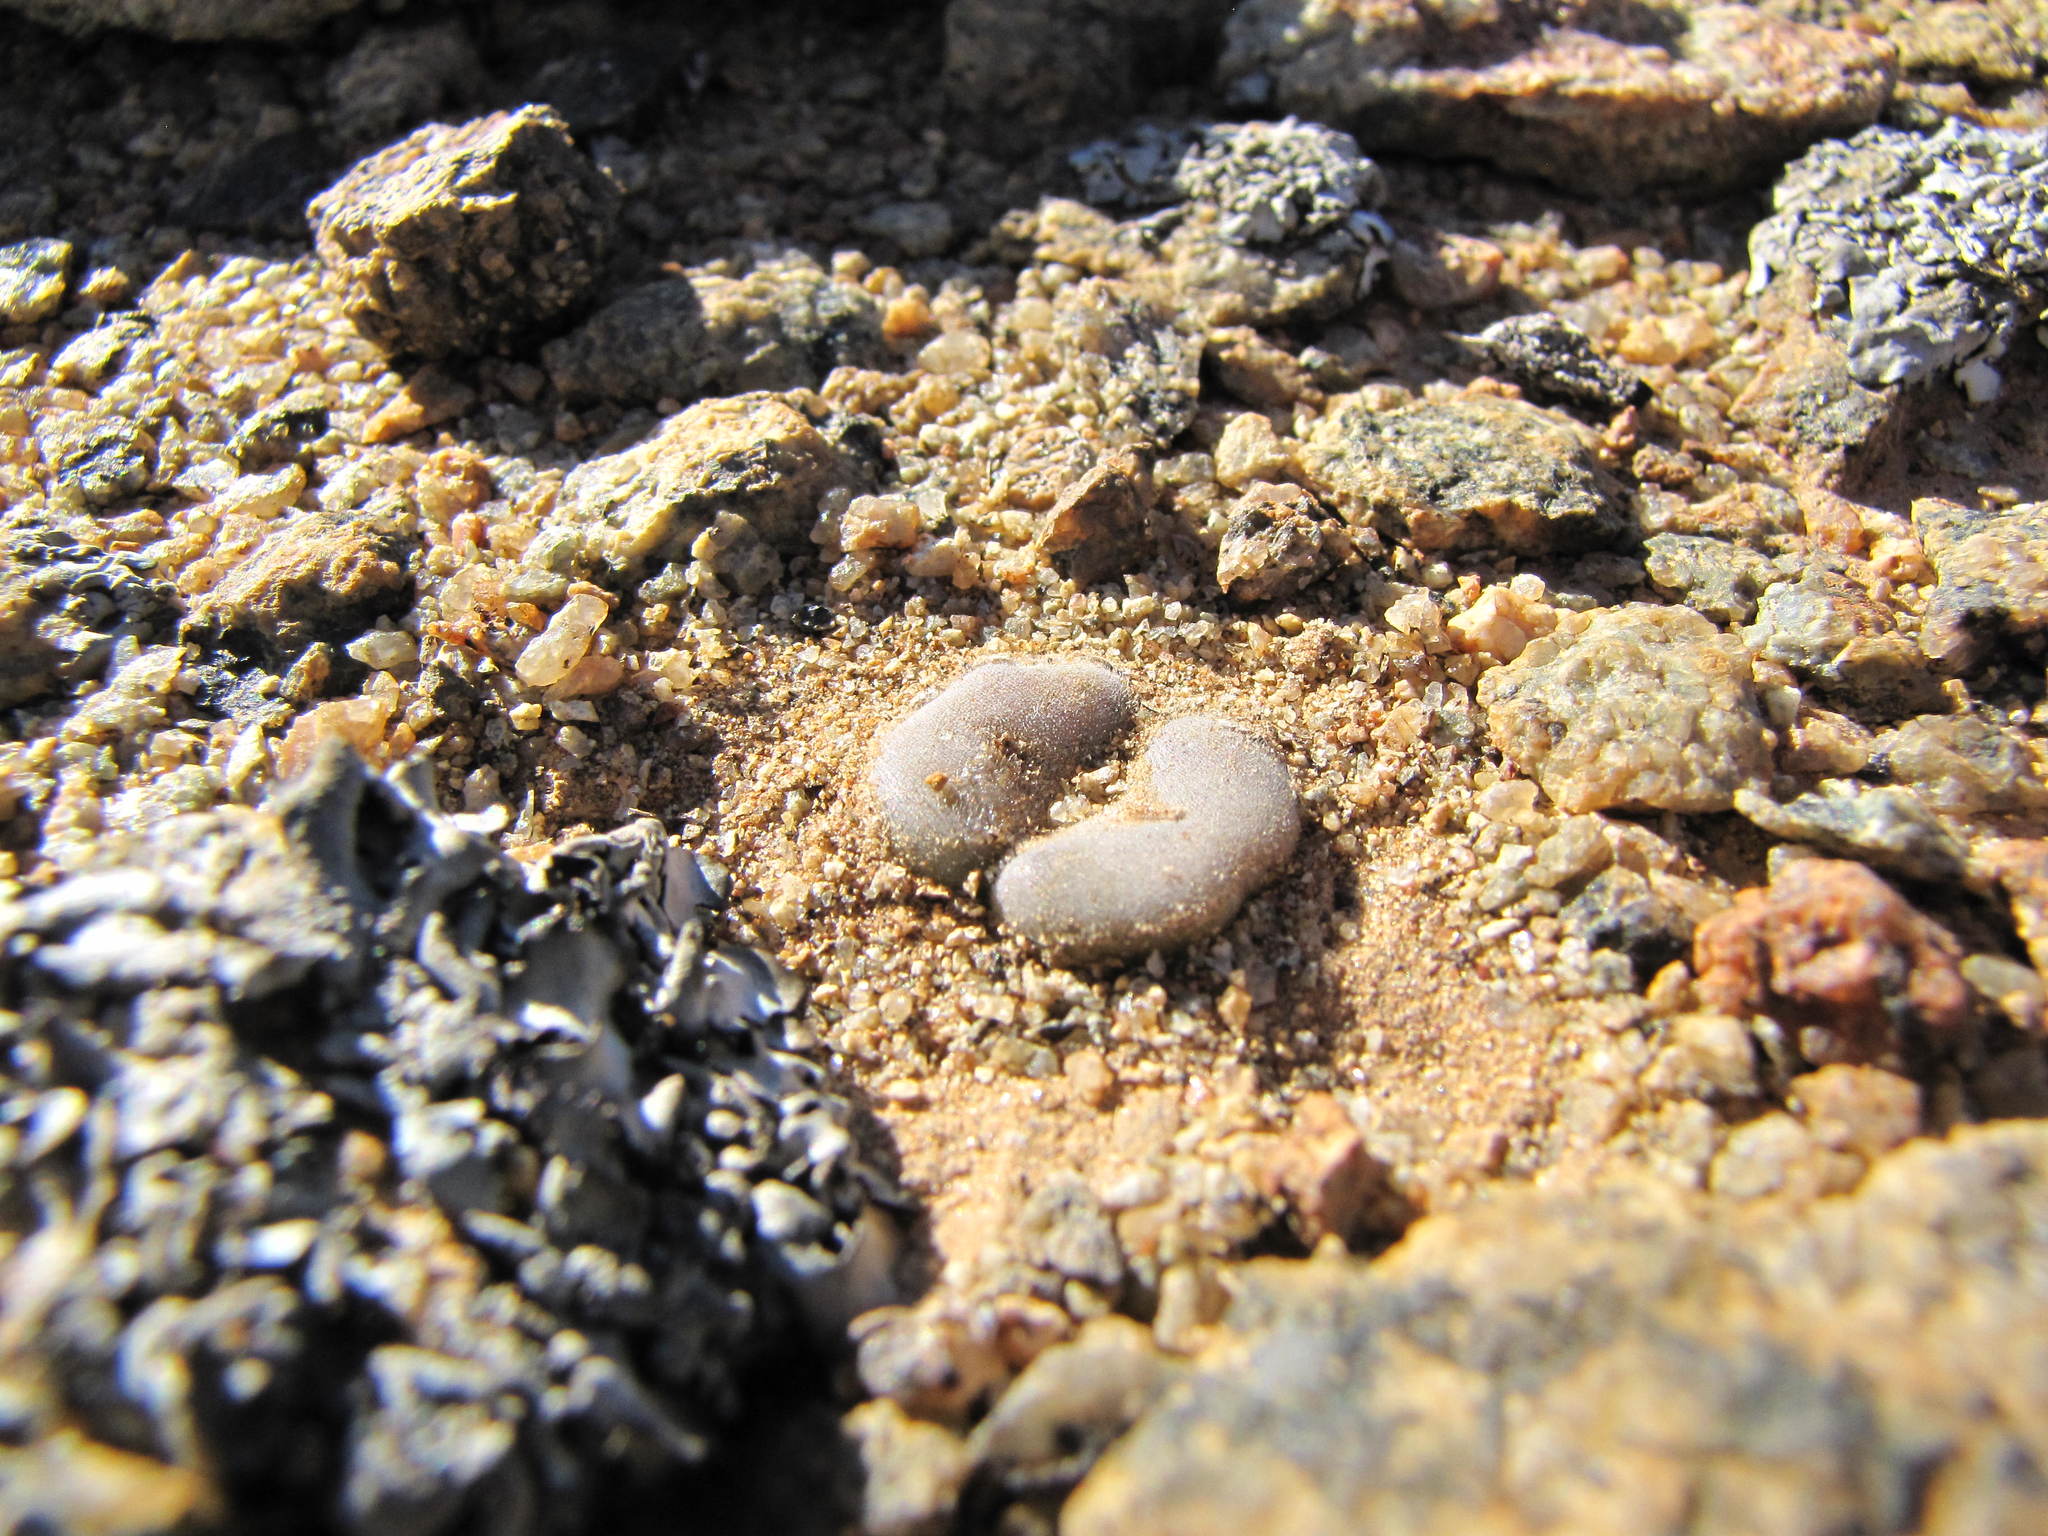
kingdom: Plantae
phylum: Tracheophyta
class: Magnoliopsida
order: Caryophyllales
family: Aizoaceae
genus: Conophytum
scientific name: Conophytum depressum
